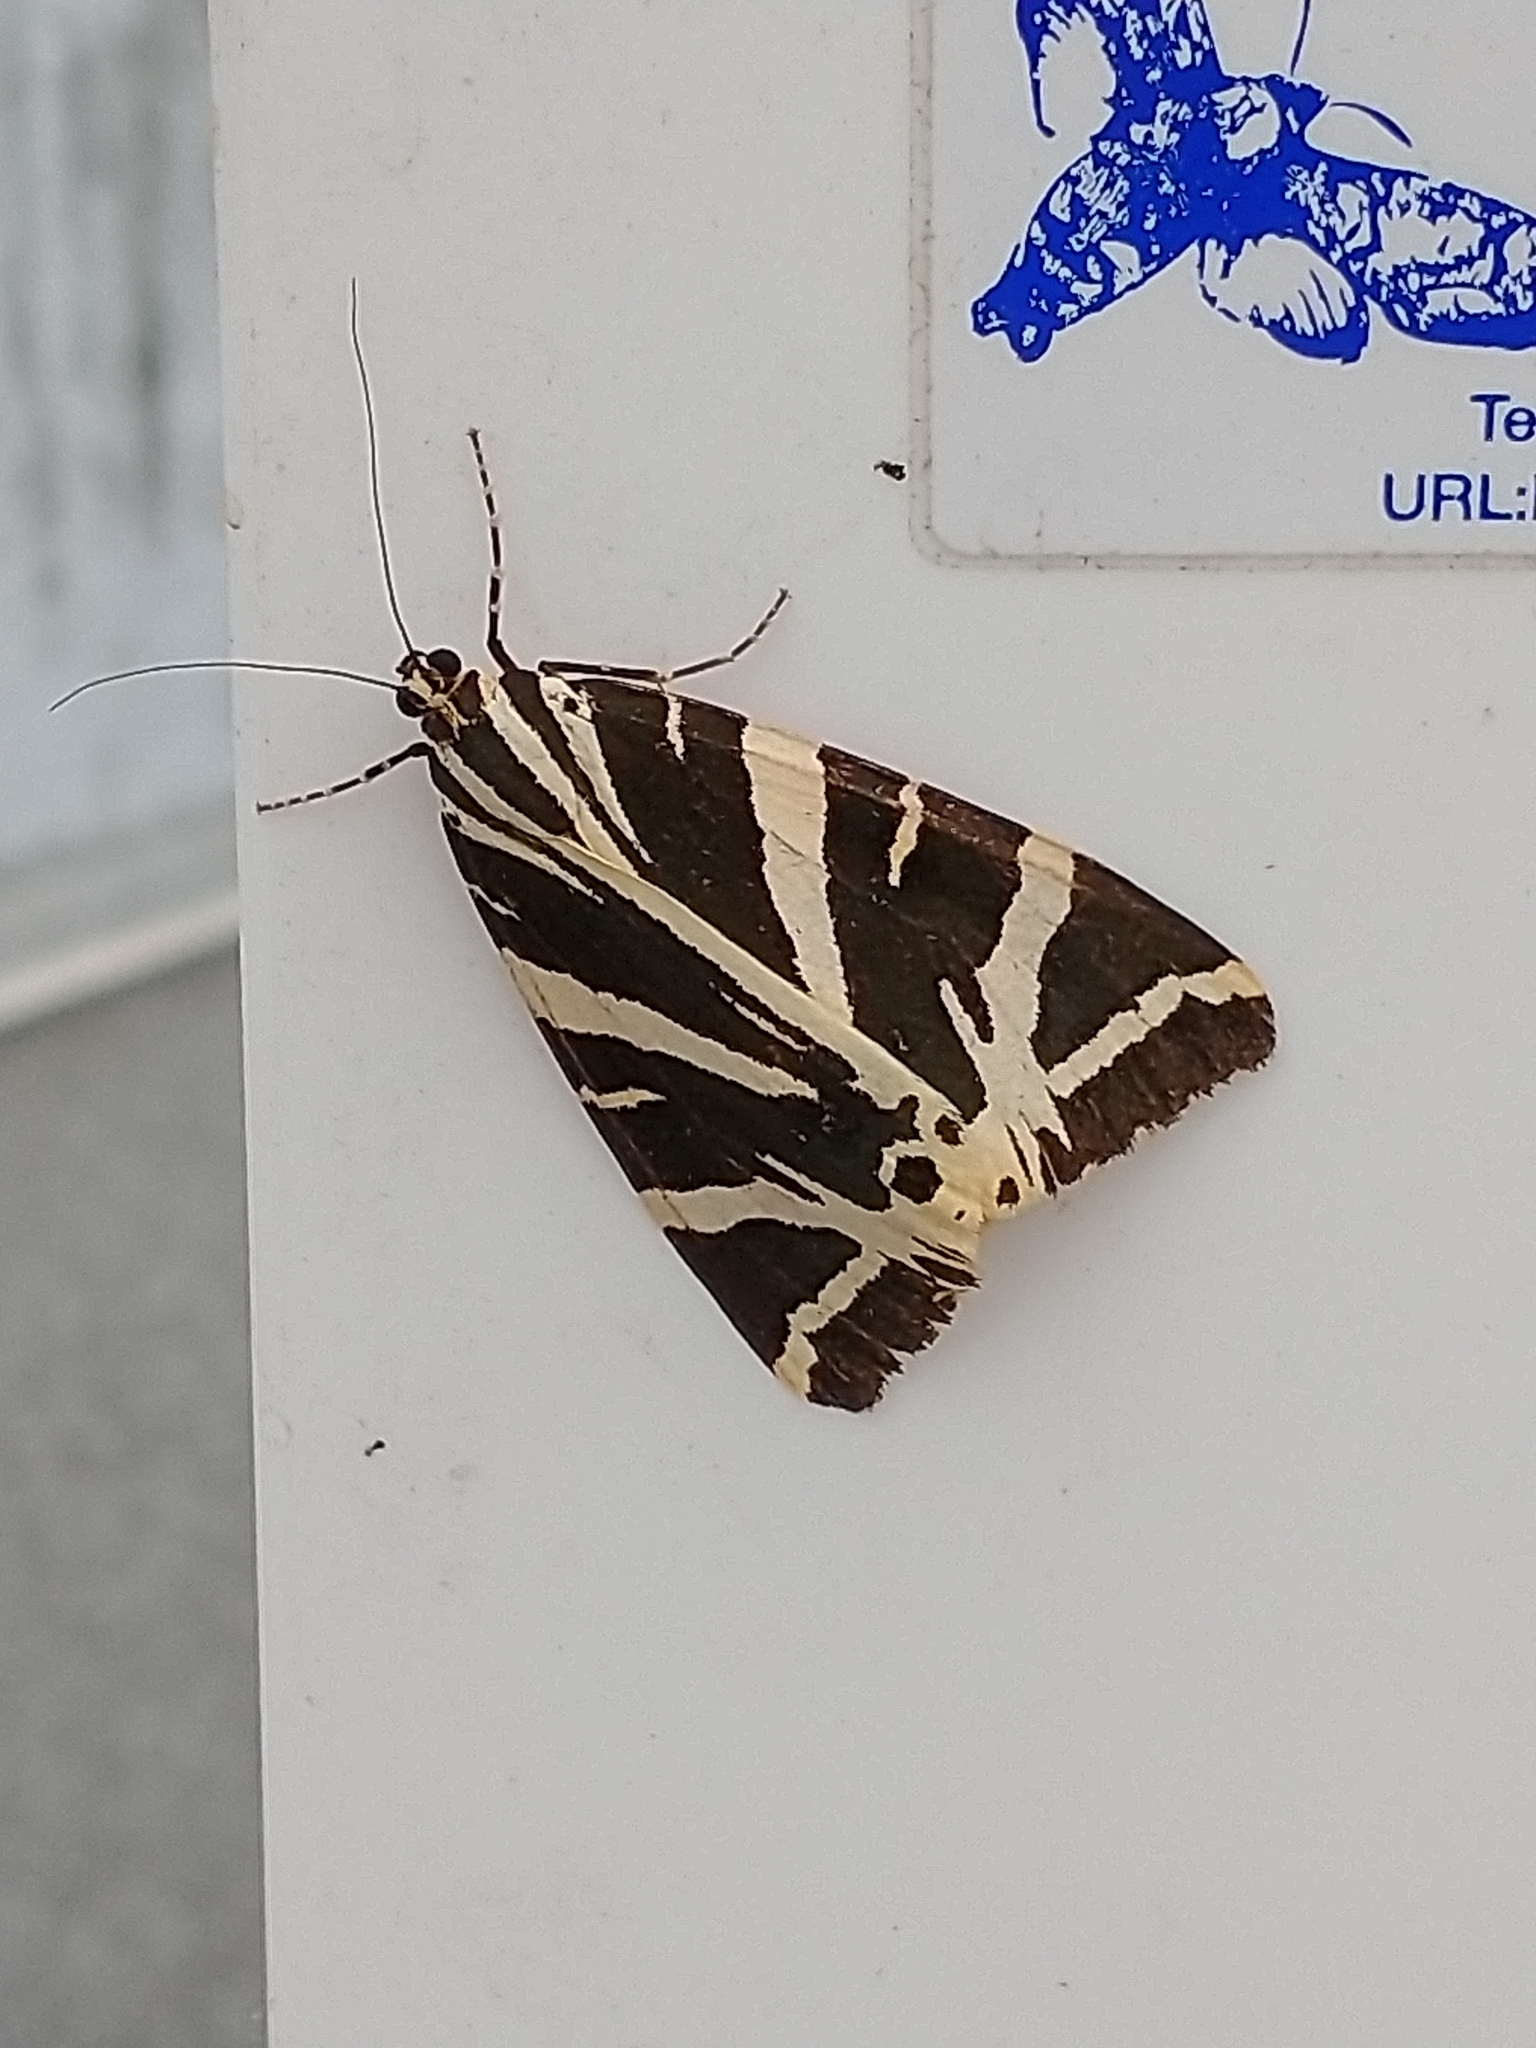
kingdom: Animalia
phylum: Arthropoda
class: Insecta
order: Lepidoptera
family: Erebidae
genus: Euplagia
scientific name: Euplagia quadripunctaria
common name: Jersey tiger
